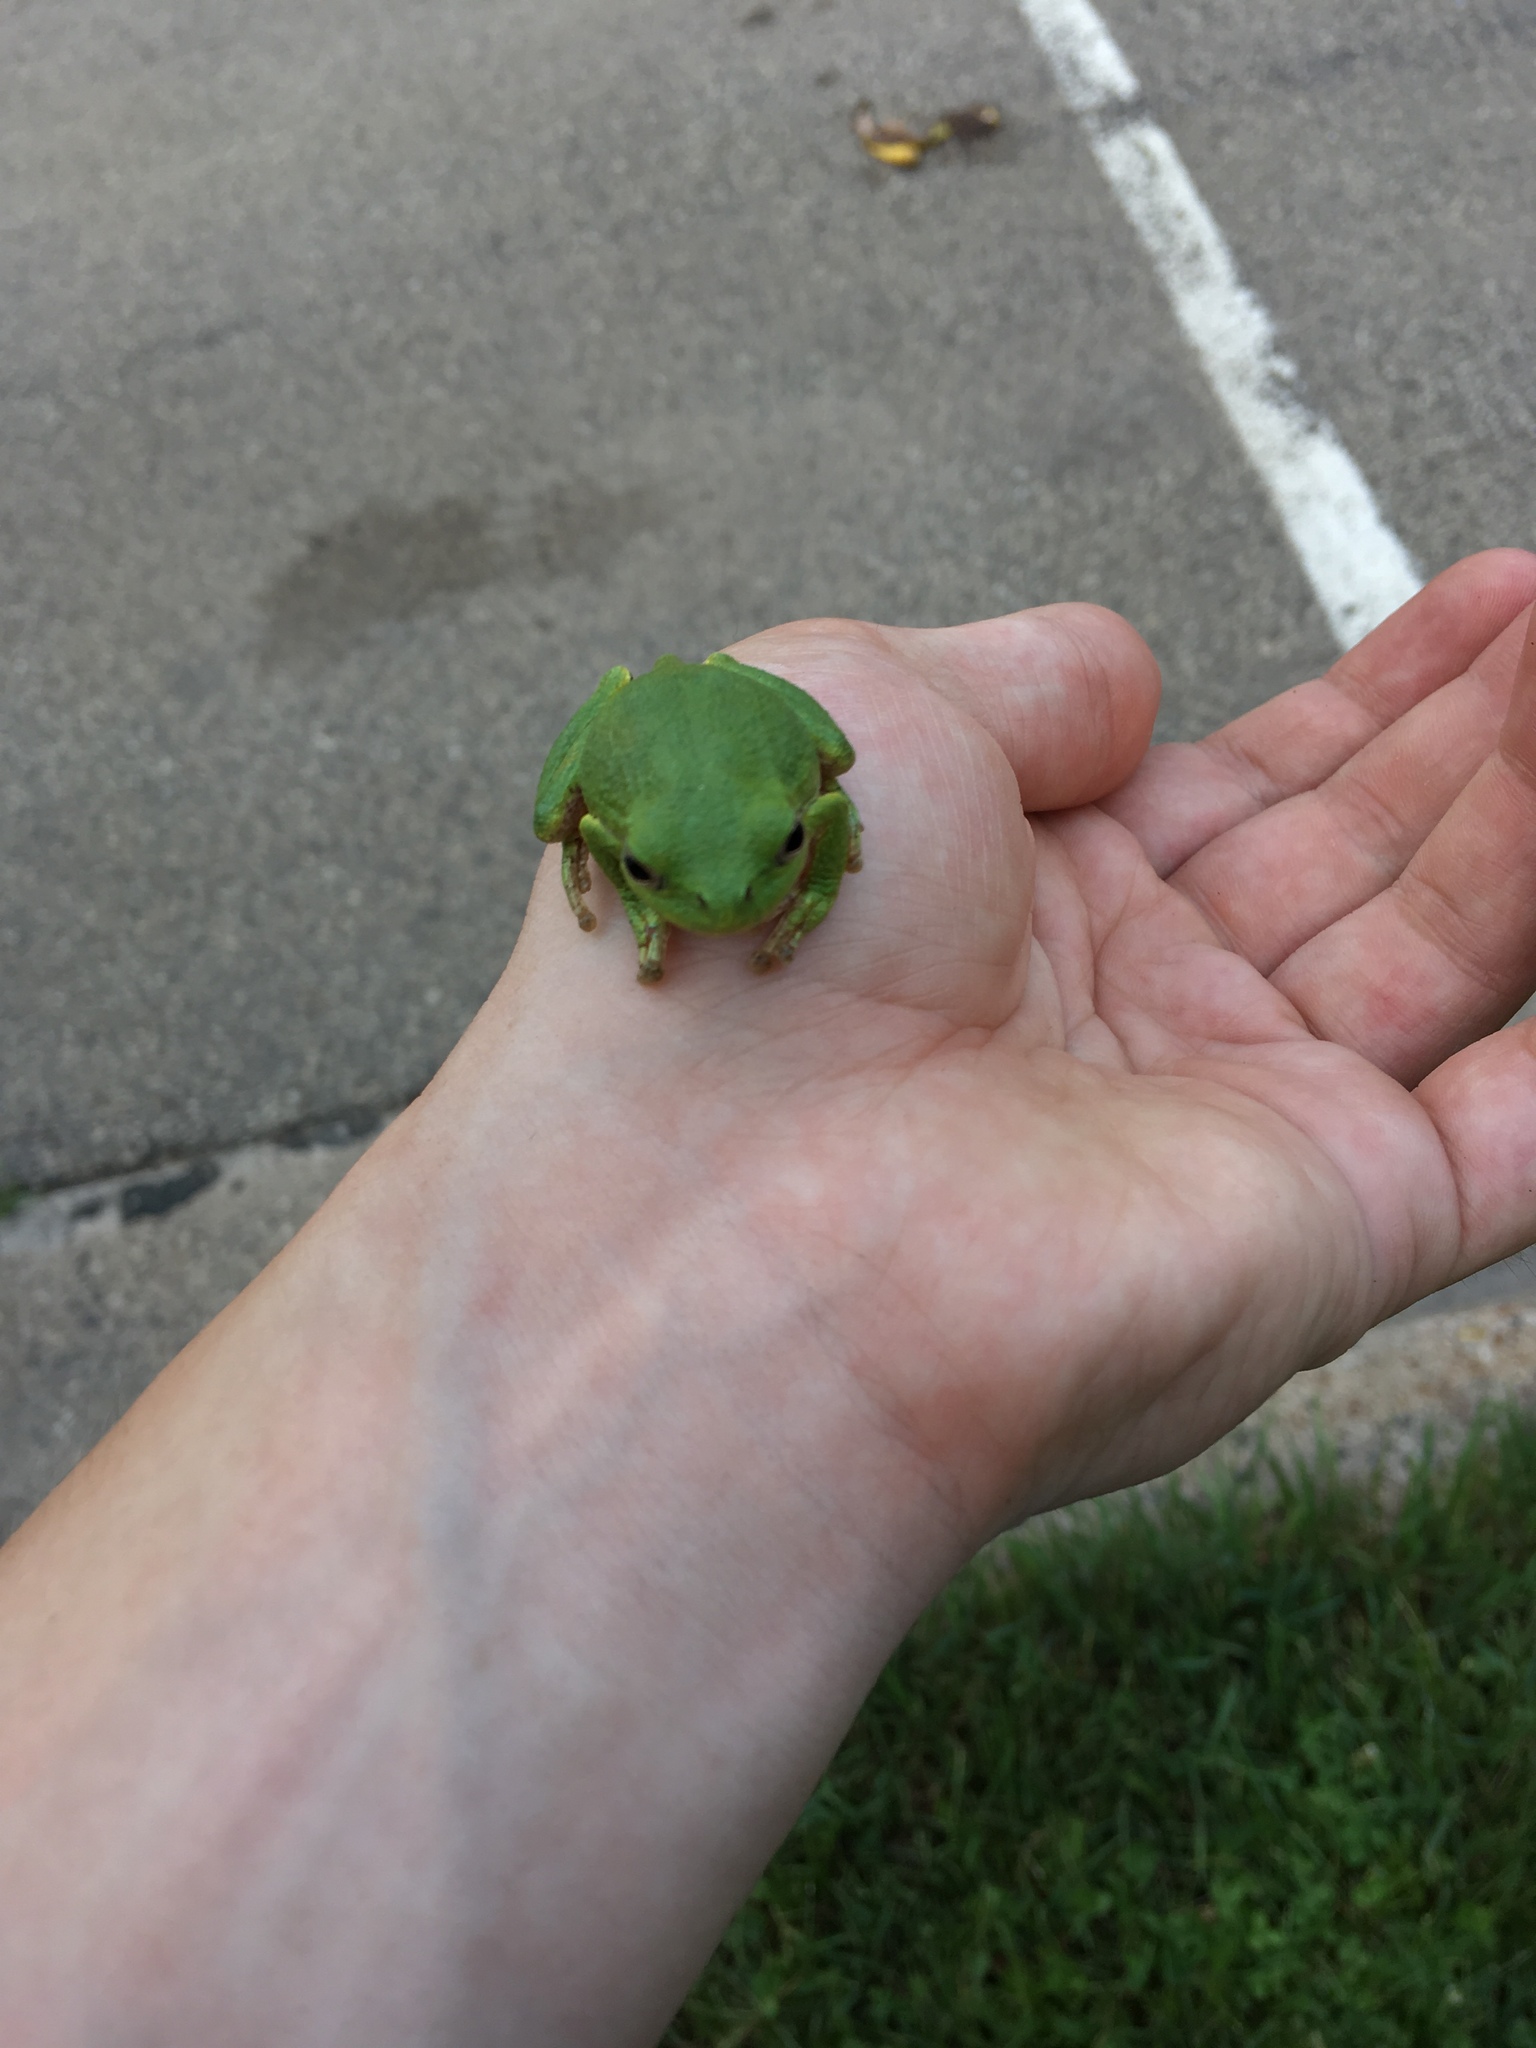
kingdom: Animalia
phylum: Chordata
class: Amphibia
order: Anura
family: Hylidae
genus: Hyla
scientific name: Hyla
